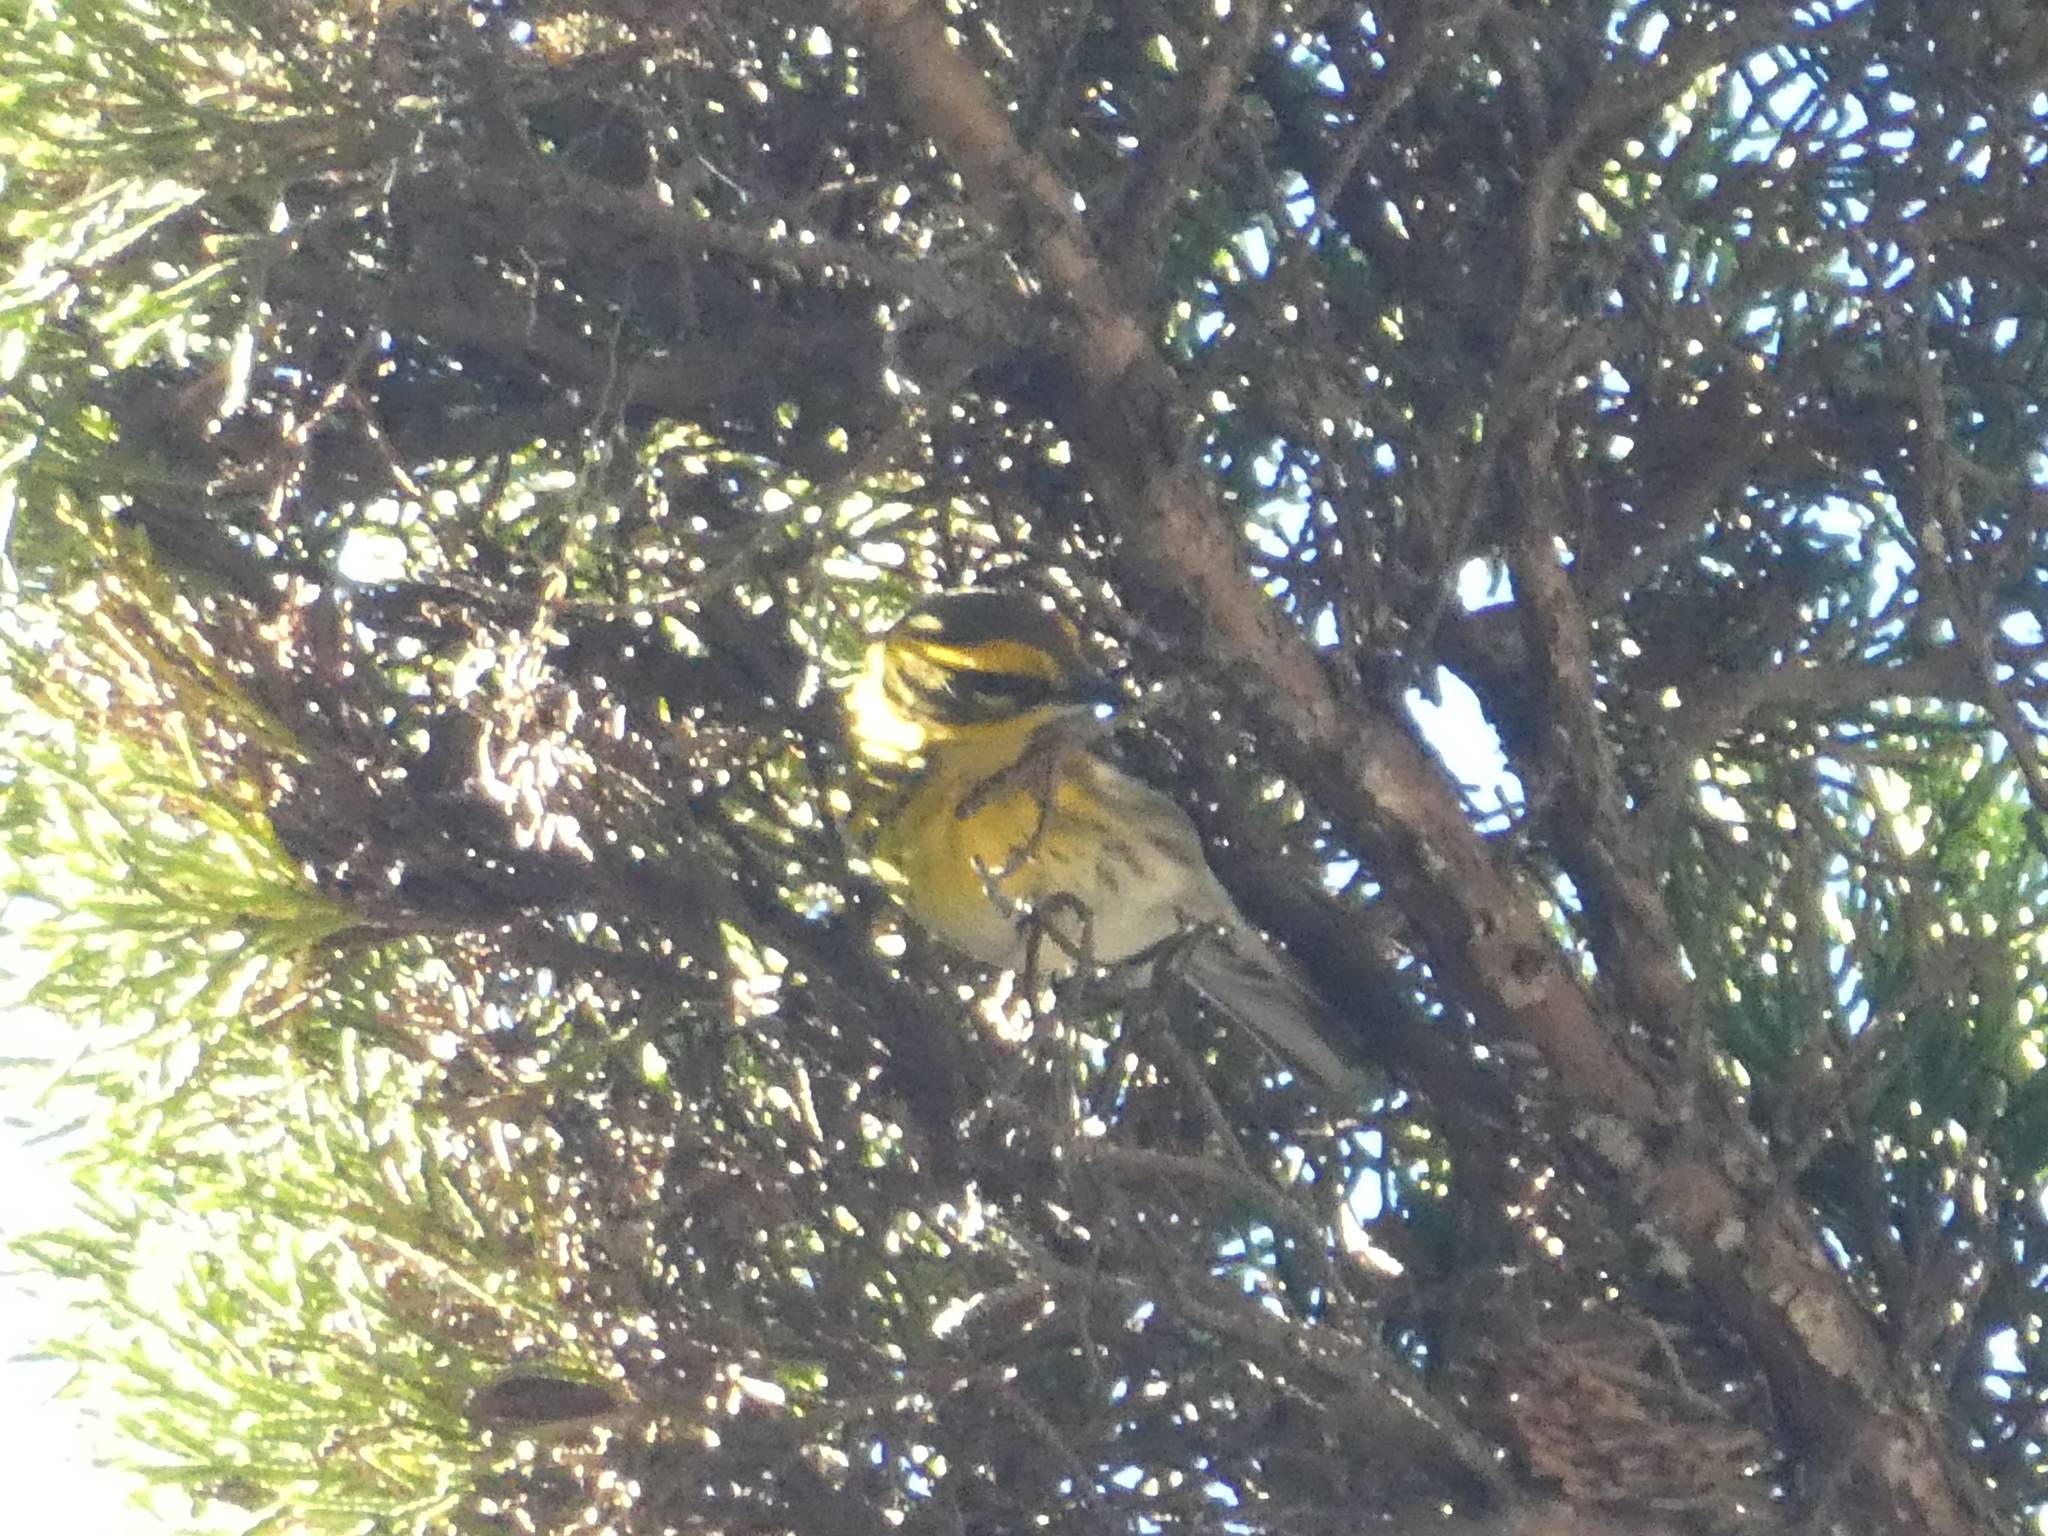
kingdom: Animalia
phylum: Chordata
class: Aves
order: Passeriformes
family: Parulidae
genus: Setophaga
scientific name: Setophaga townsendi
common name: Townsend's warbler
